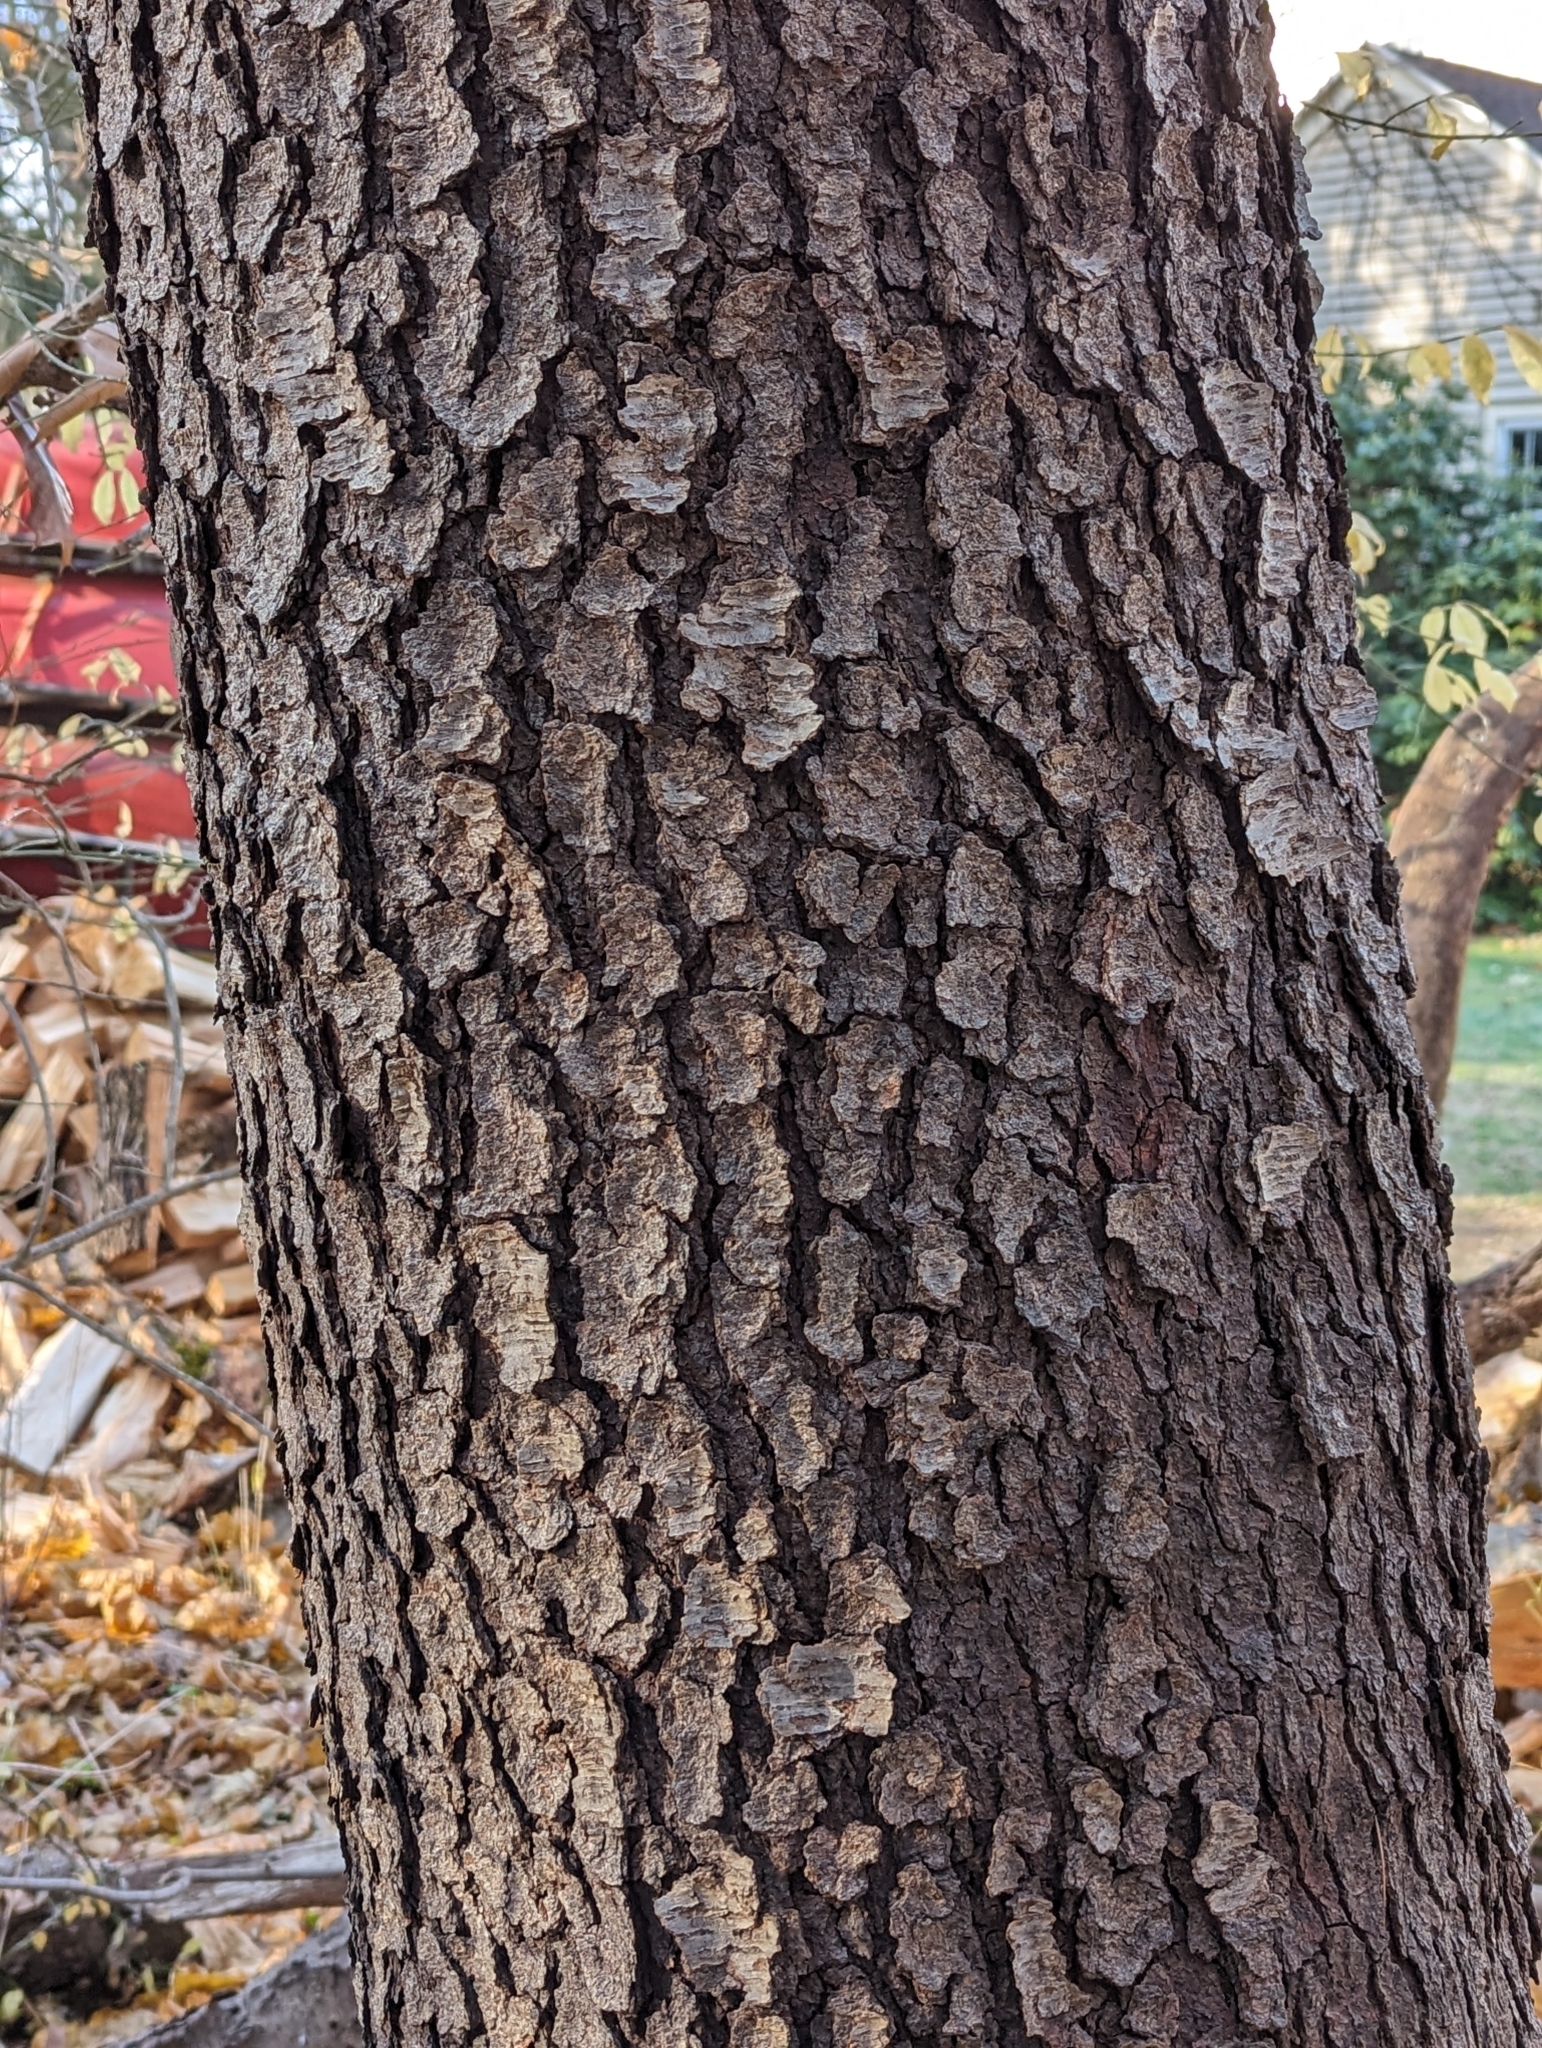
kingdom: Plantae
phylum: Tracheophyta
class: Magnoliopsida
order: Rosales
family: Rosaceae
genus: Prunus
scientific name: Prunus serotina
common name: Black cherry
